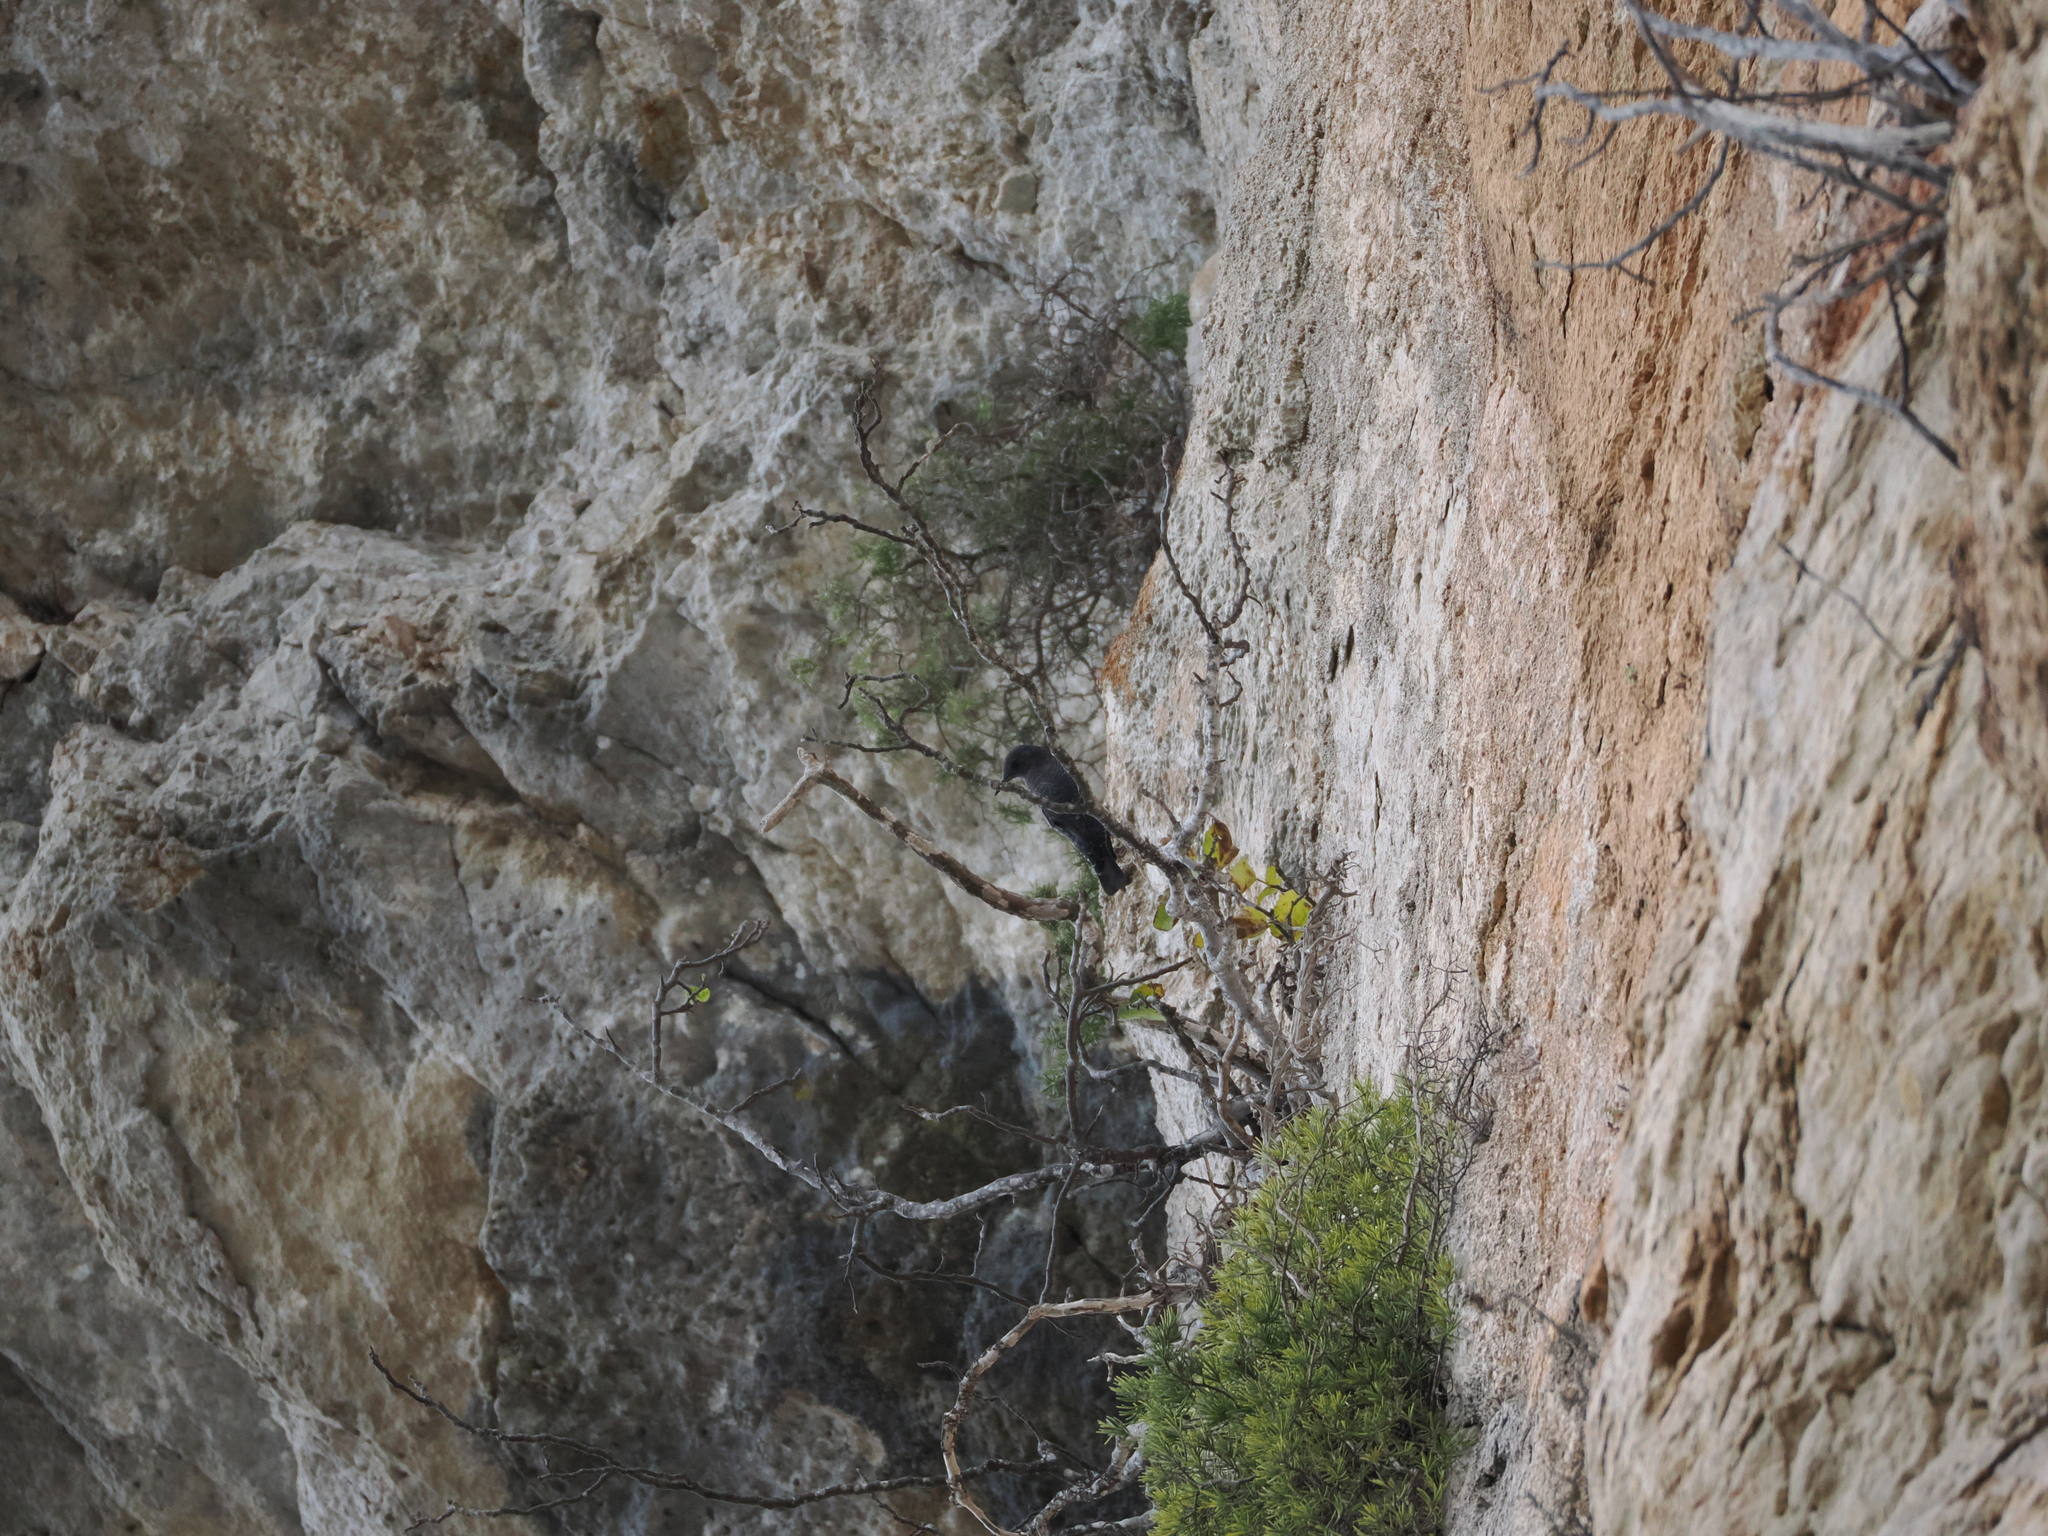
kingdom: Animalia
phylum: Chordata
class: Aves
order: Passeriformes
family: Muscicapidae
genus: Monticola
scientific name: Monticola solitarius
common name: Blue rock thrush
